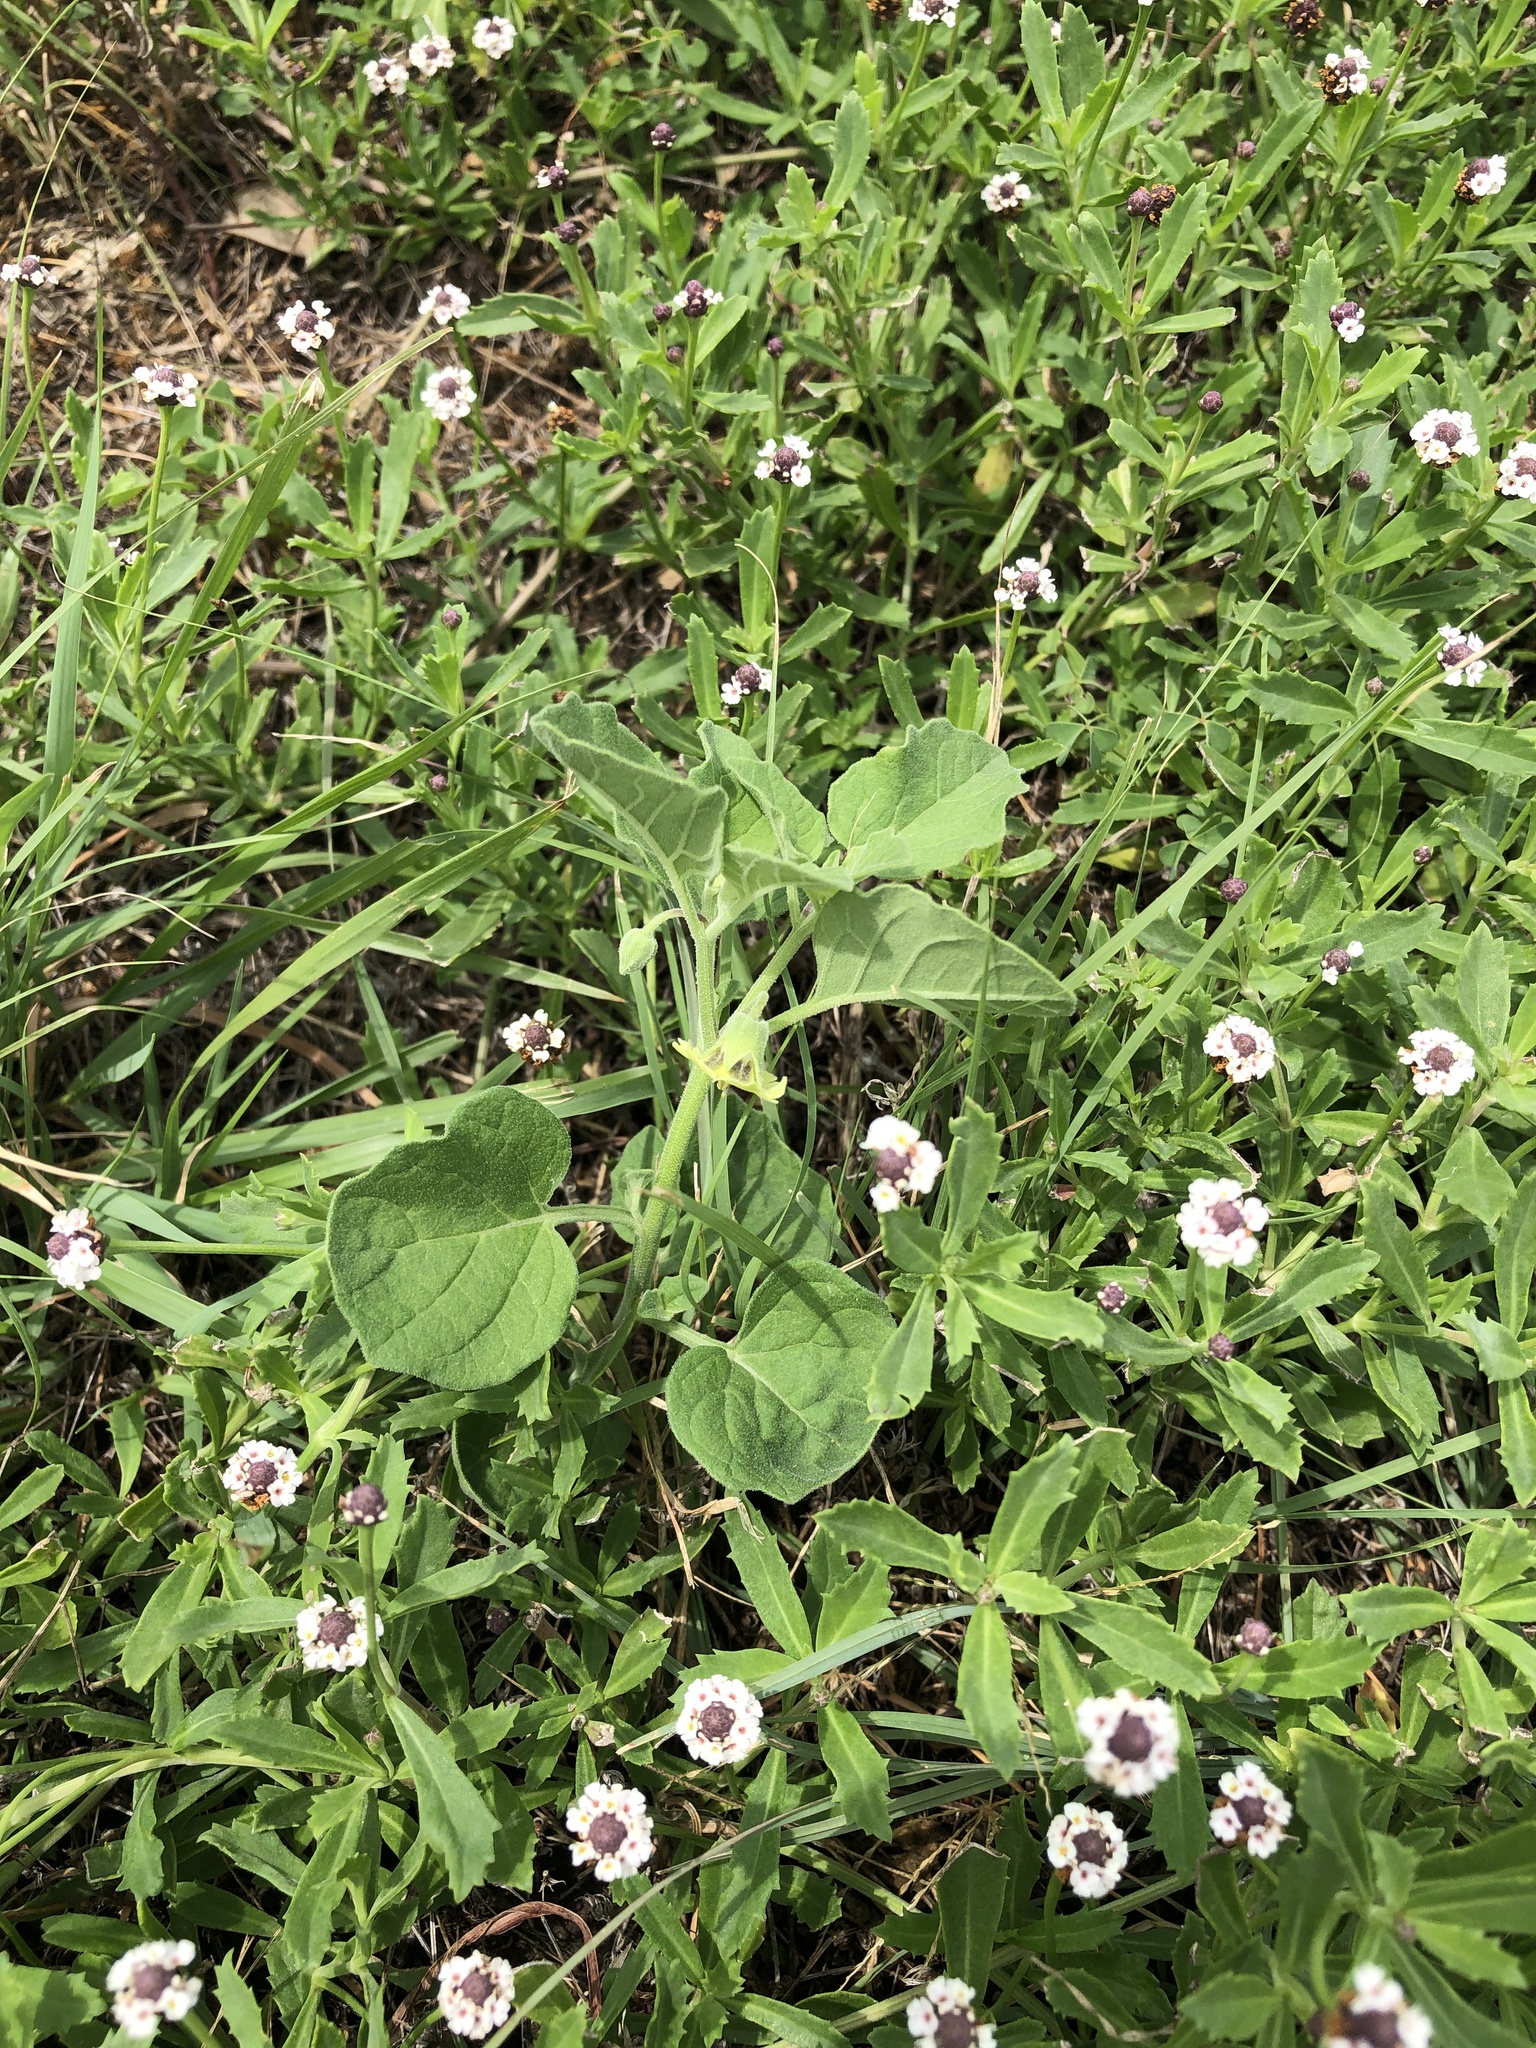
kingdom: Plantae
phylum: Tracheophyta
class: Magnoliopsida
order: Solanales
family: Solanaceae
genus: Physalis
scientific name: Physalis cinerascens
